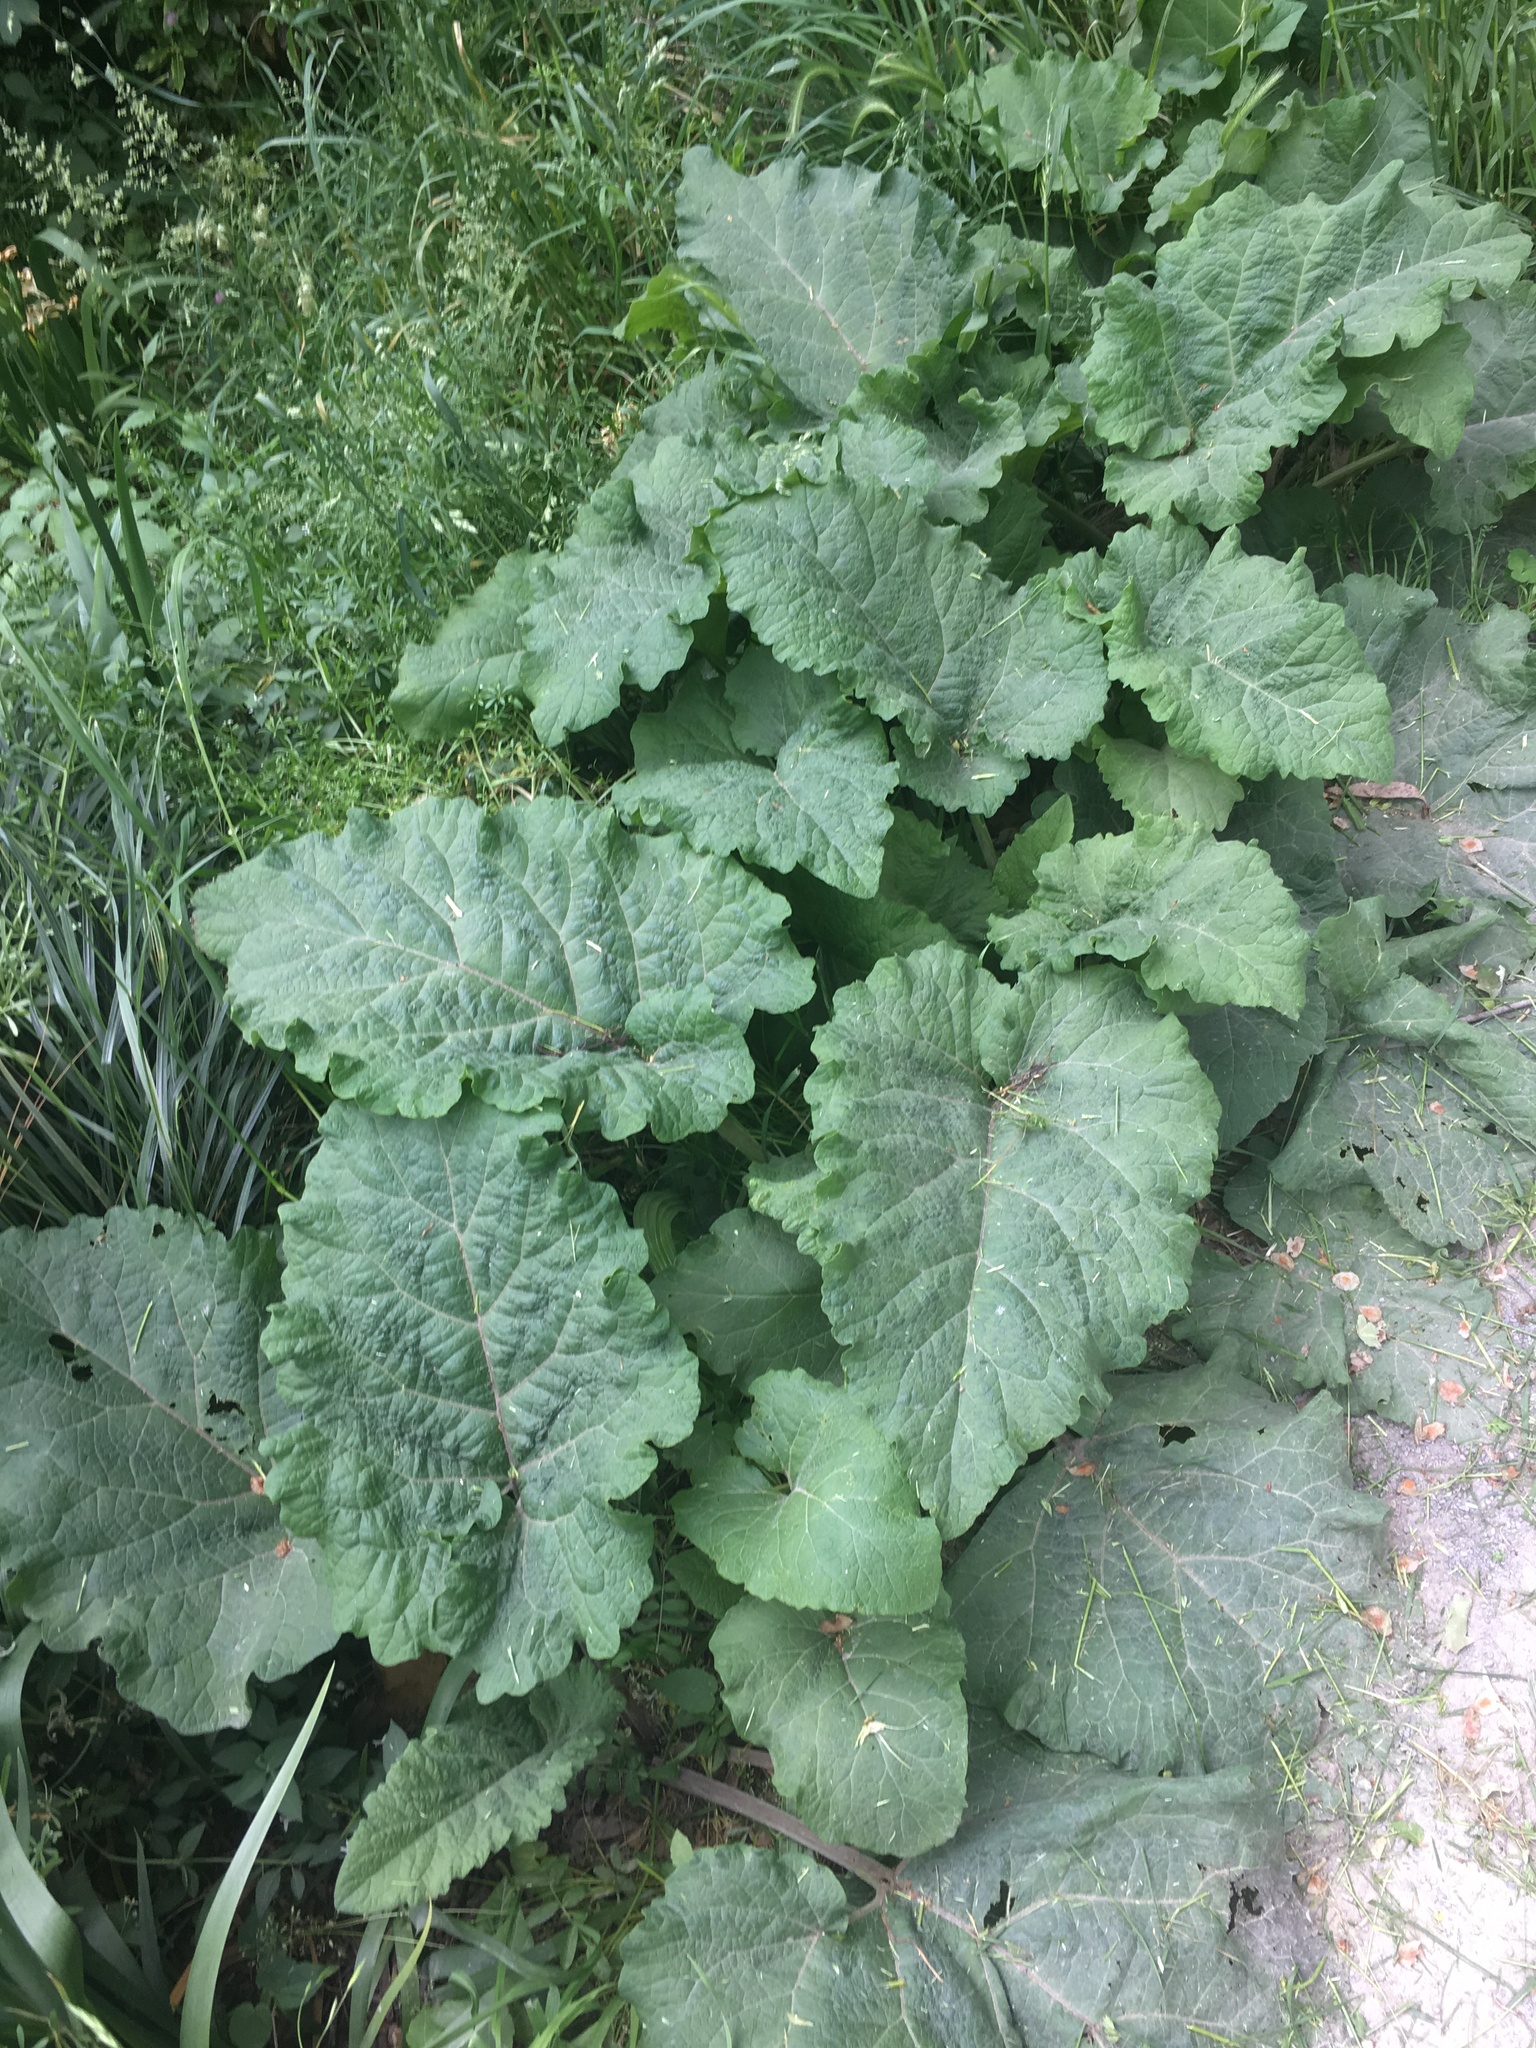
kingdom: Plantae
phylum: Tracheophyta
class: Magnoliopsida
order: Asterales
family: Asteraceae
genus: Arctium
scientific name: Arctium minus
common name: Lesser burdock
